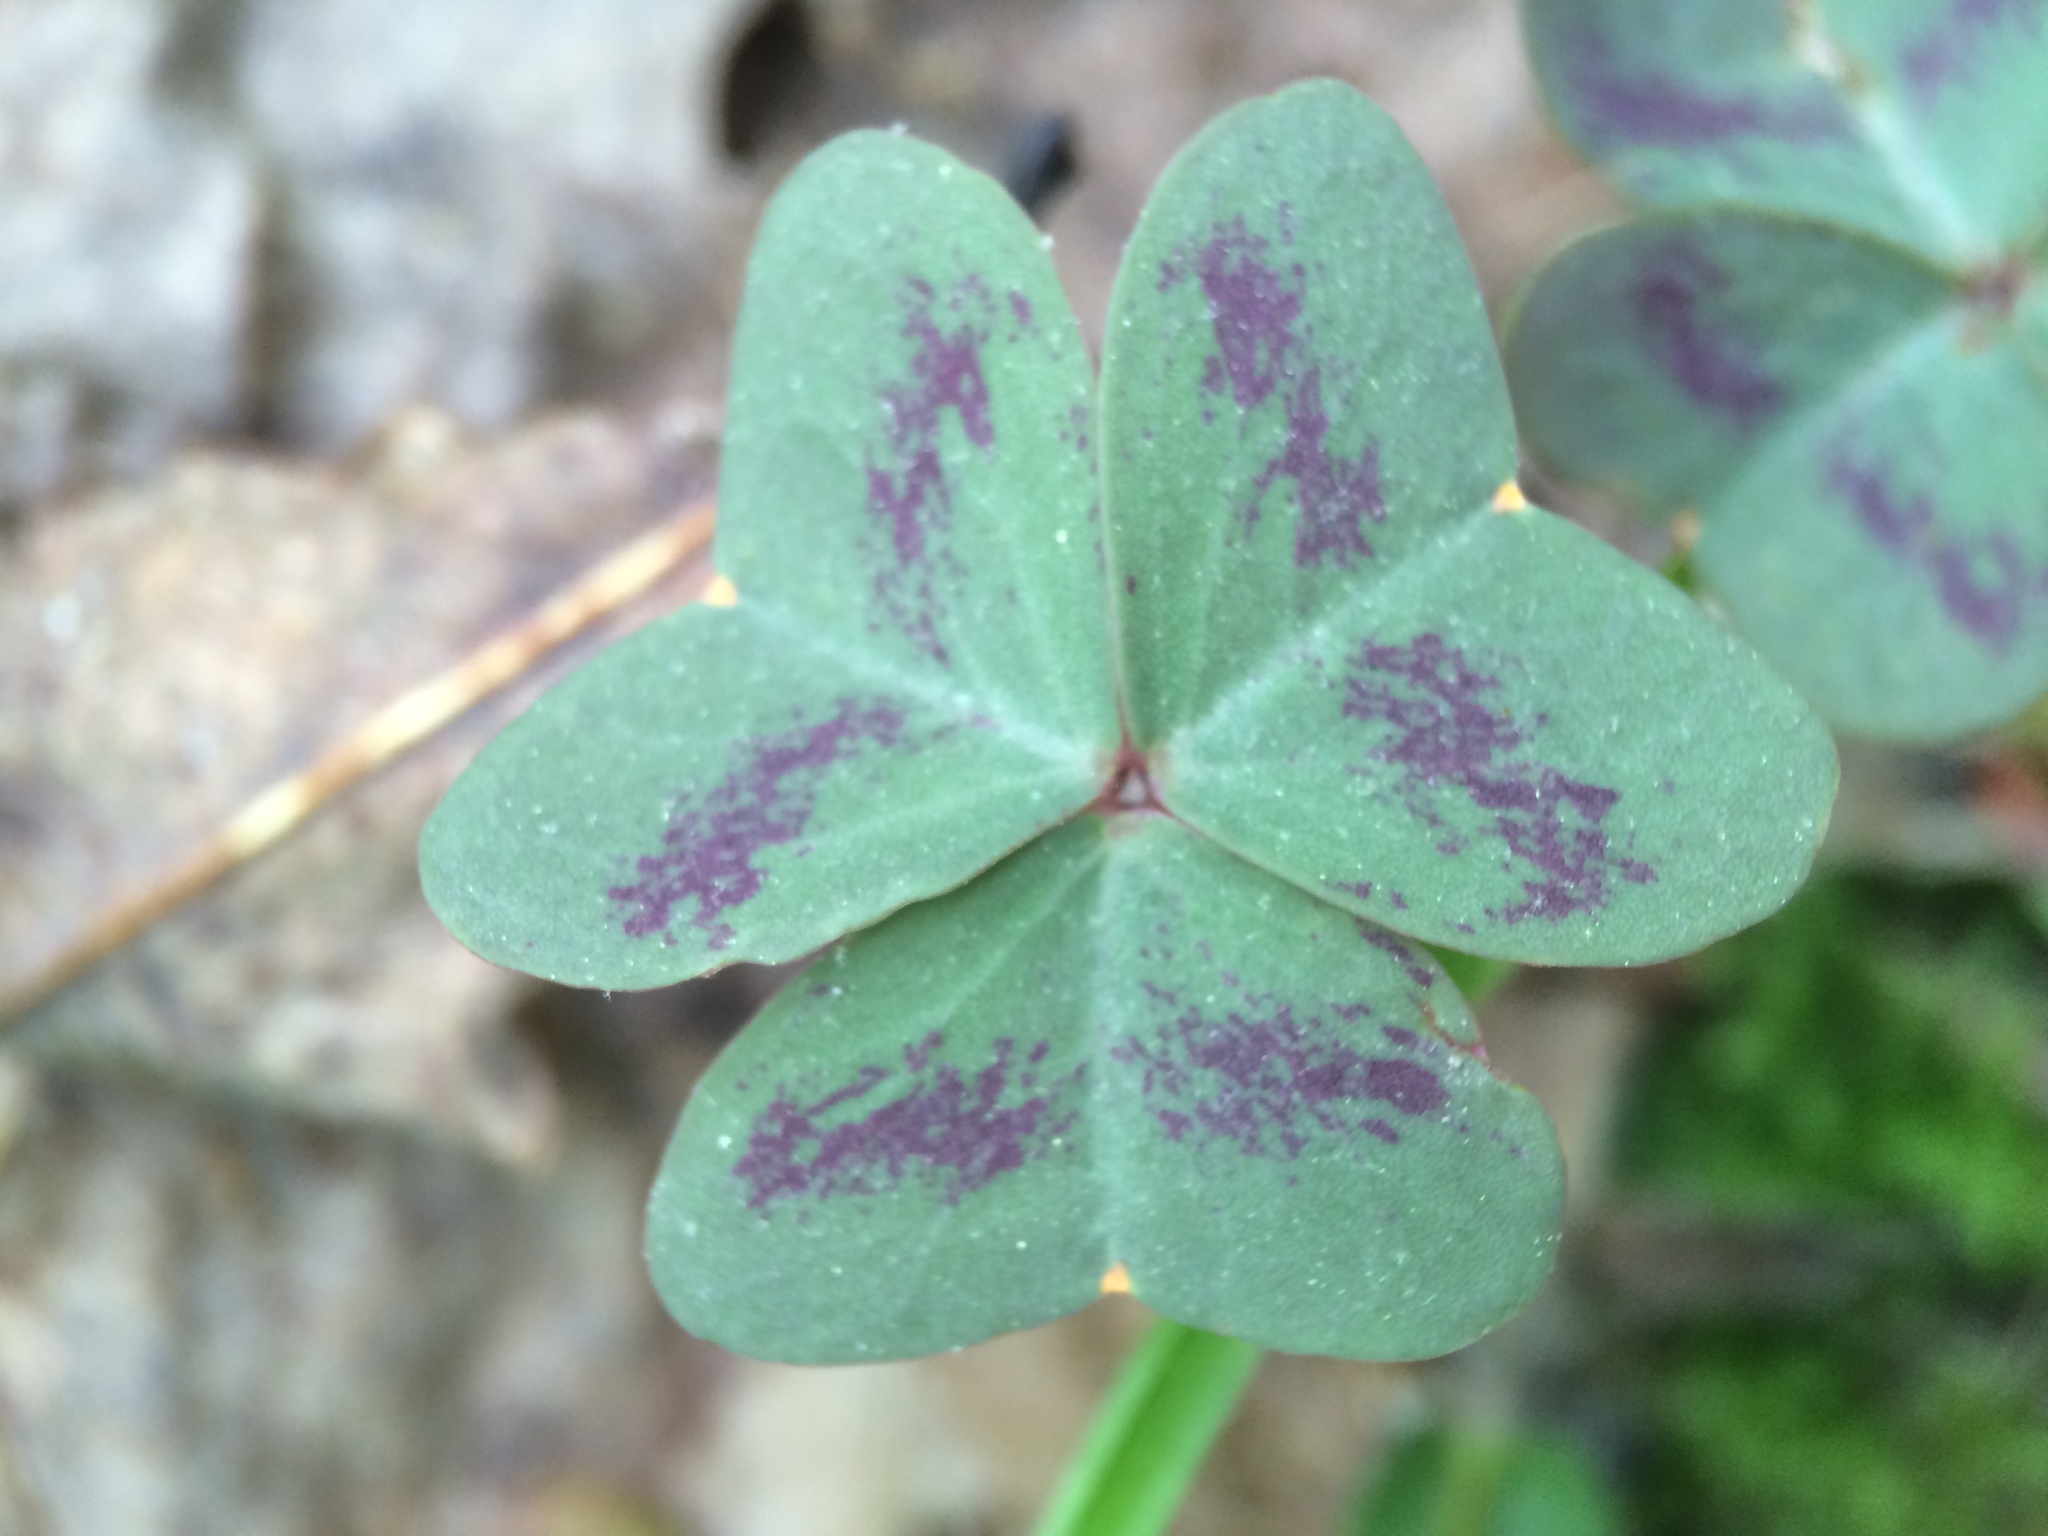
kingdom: Plantae
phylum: Tracheophyta
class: Magnoliopsida
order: Oxalidales
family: Oxalidaceae
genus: Oxalis
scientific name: Oxalis violacea
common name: Violet wood-sorrel
